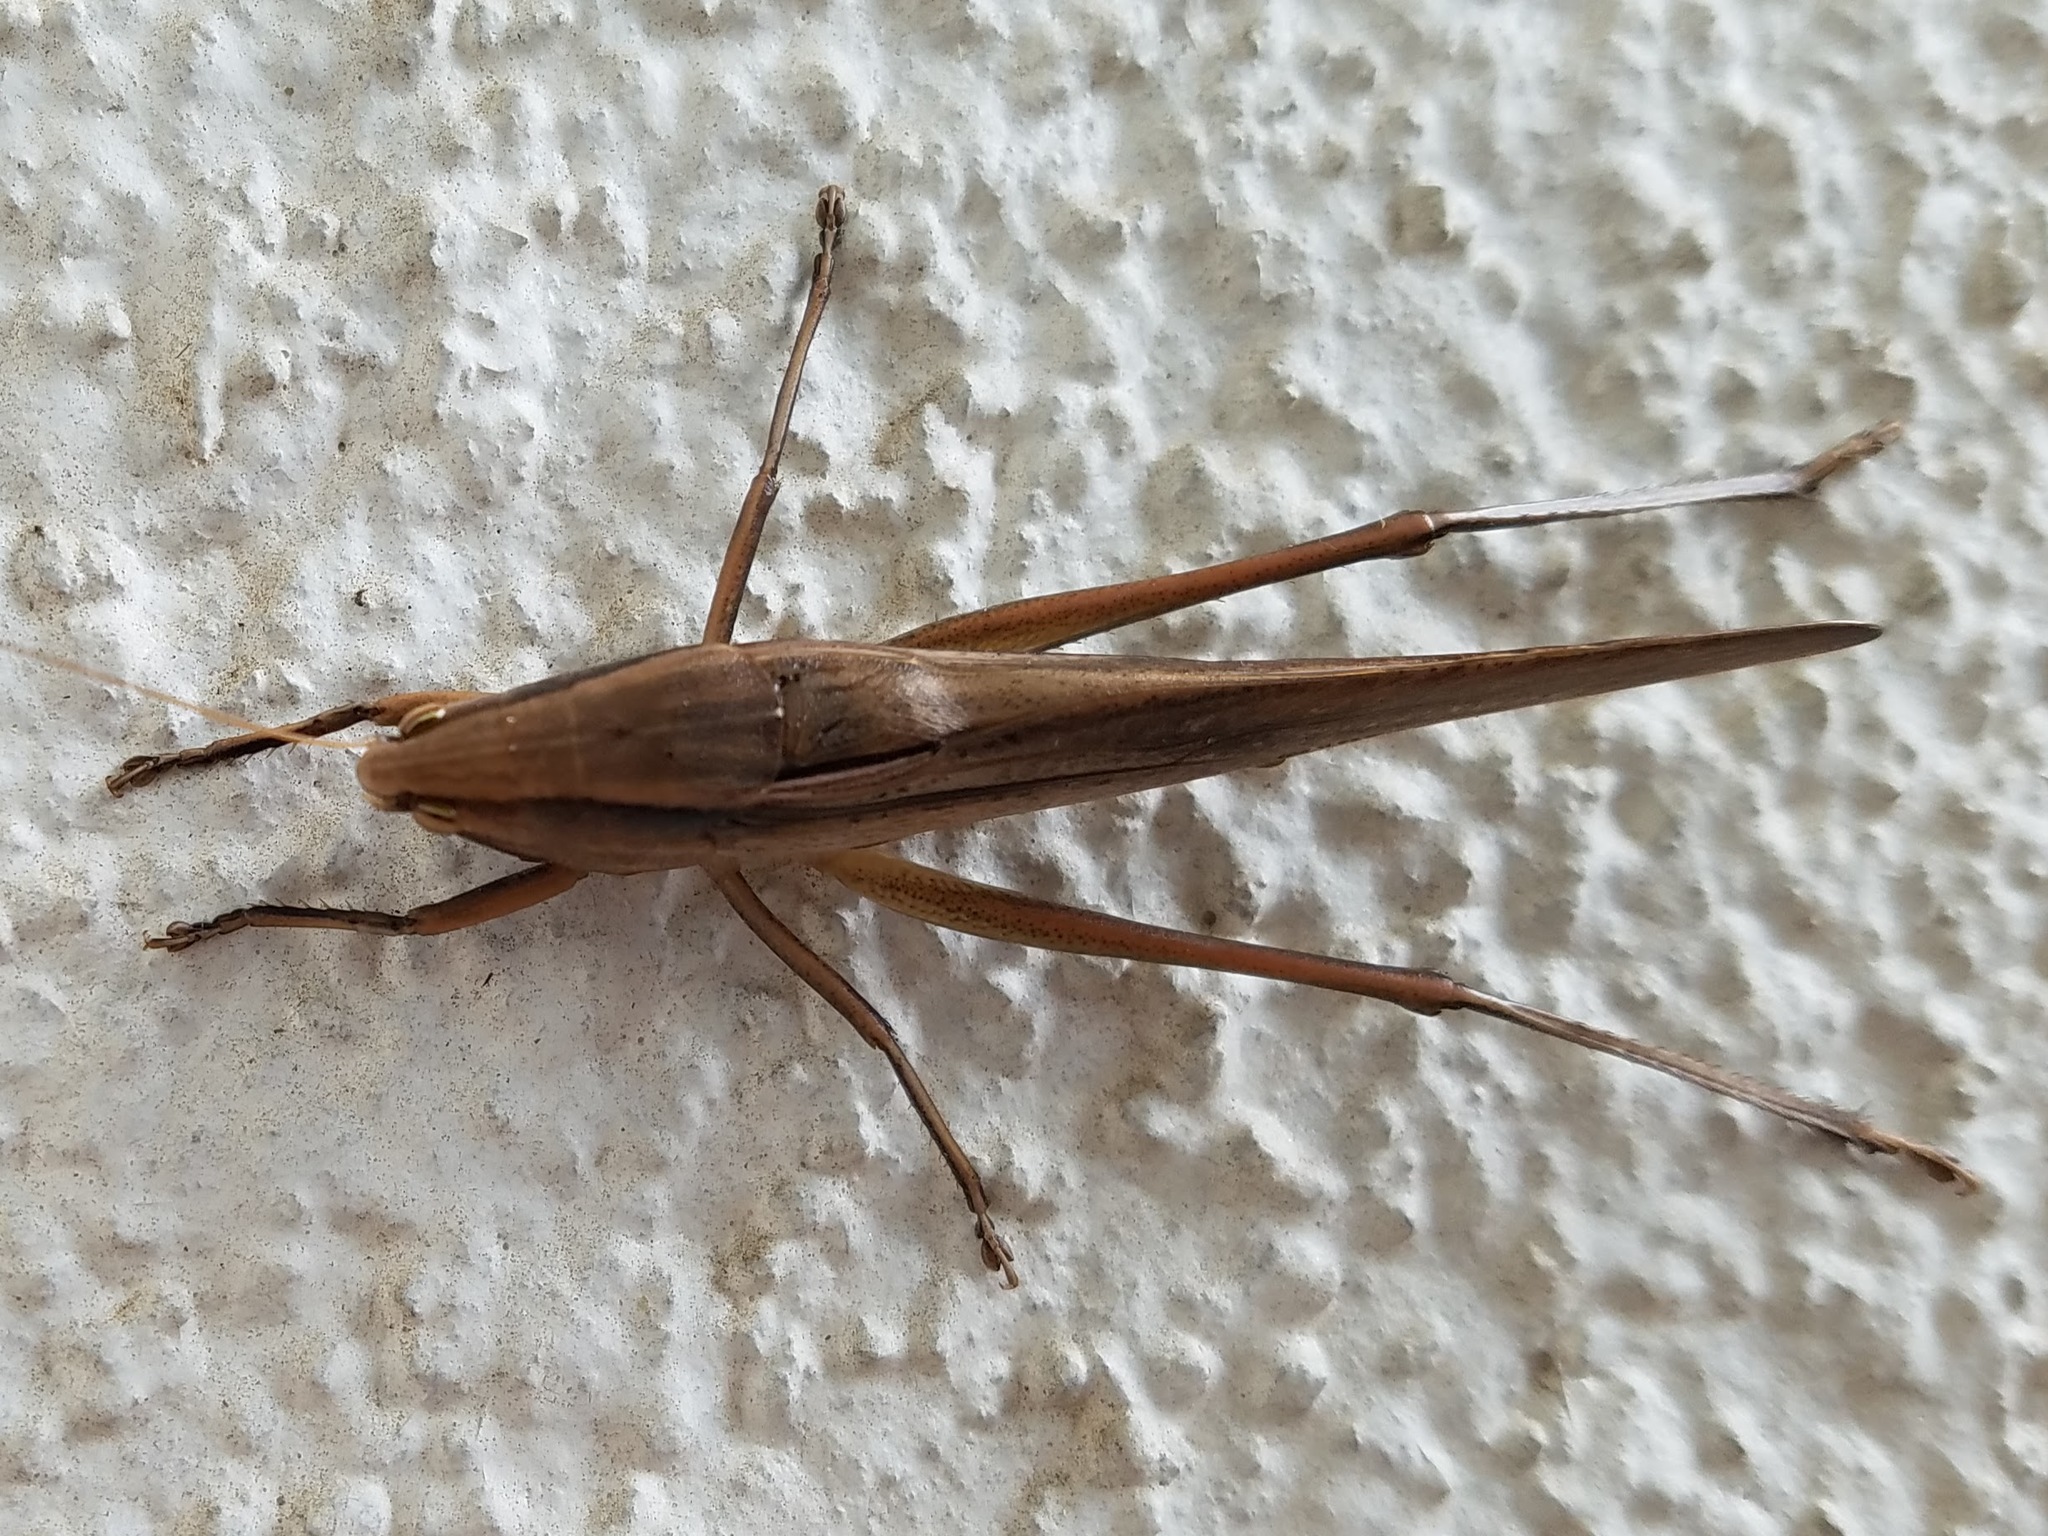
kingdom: Animalia
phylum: Arthropoda
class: Insecta
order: Orthoptera
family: Tettigoniidae
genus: Neoconocephalus
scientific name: Neoconocephalus triops
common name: Broad-tipped conehead
